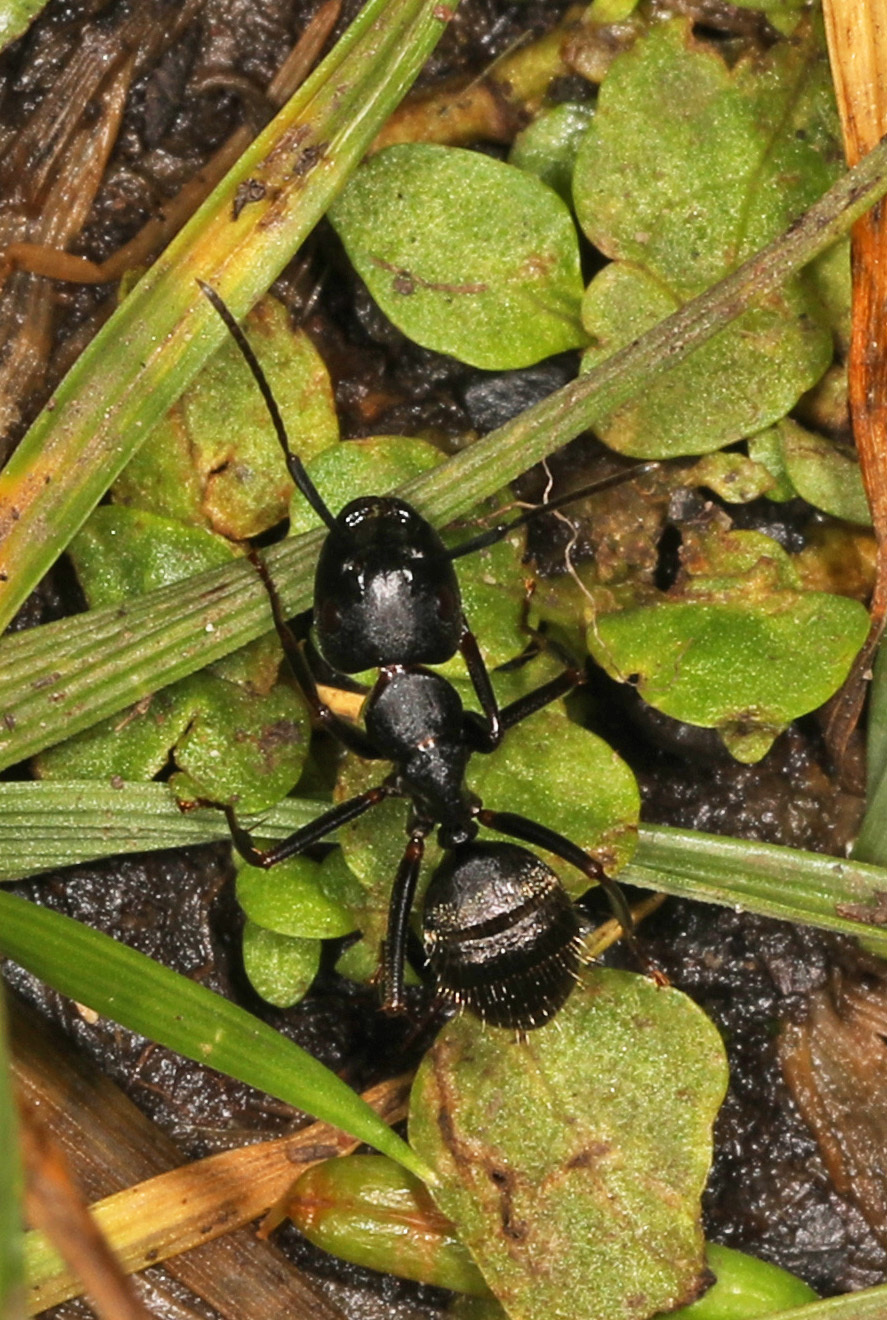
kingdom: Animalia
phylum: Arthropoda
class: Insecta
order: Hymenoptera
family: Formicidae
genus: Camponotus
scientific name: Camponotus pennsylvanicus
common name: Black carpenter ant
